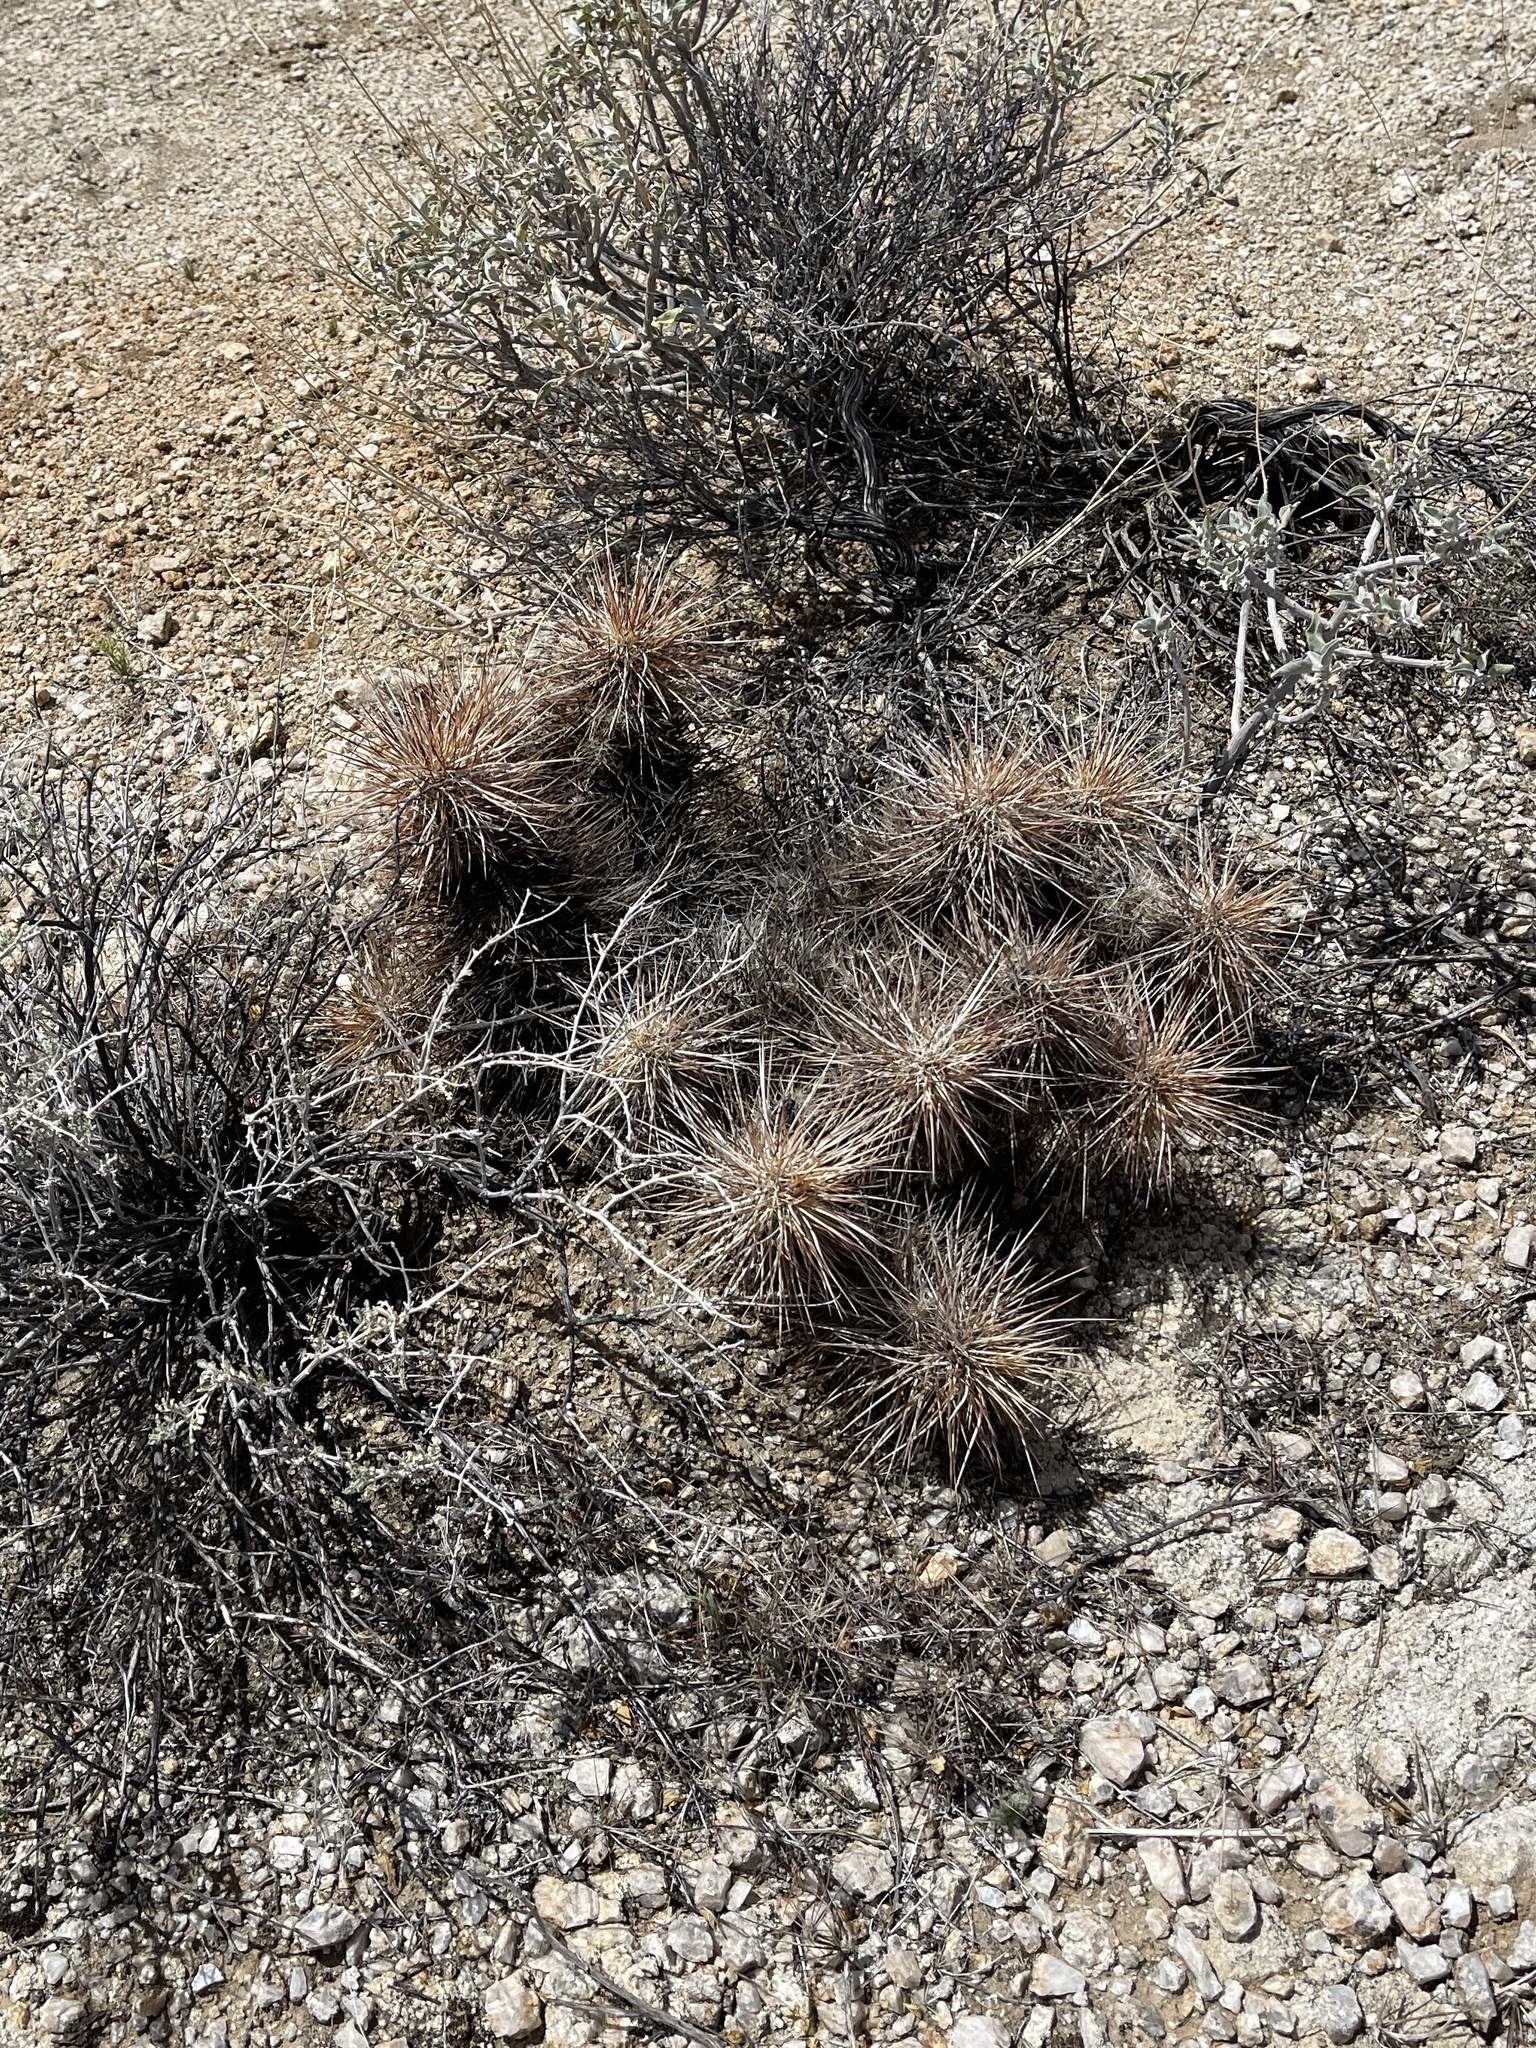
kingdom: Plantae
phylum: Tracheophyta
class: Magnoliopsida
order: Caryophyllales
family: Cactaceae
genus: Echinocereus
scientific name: Echinocereus engelmannii
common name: Engelmann's hedgehog cactus
